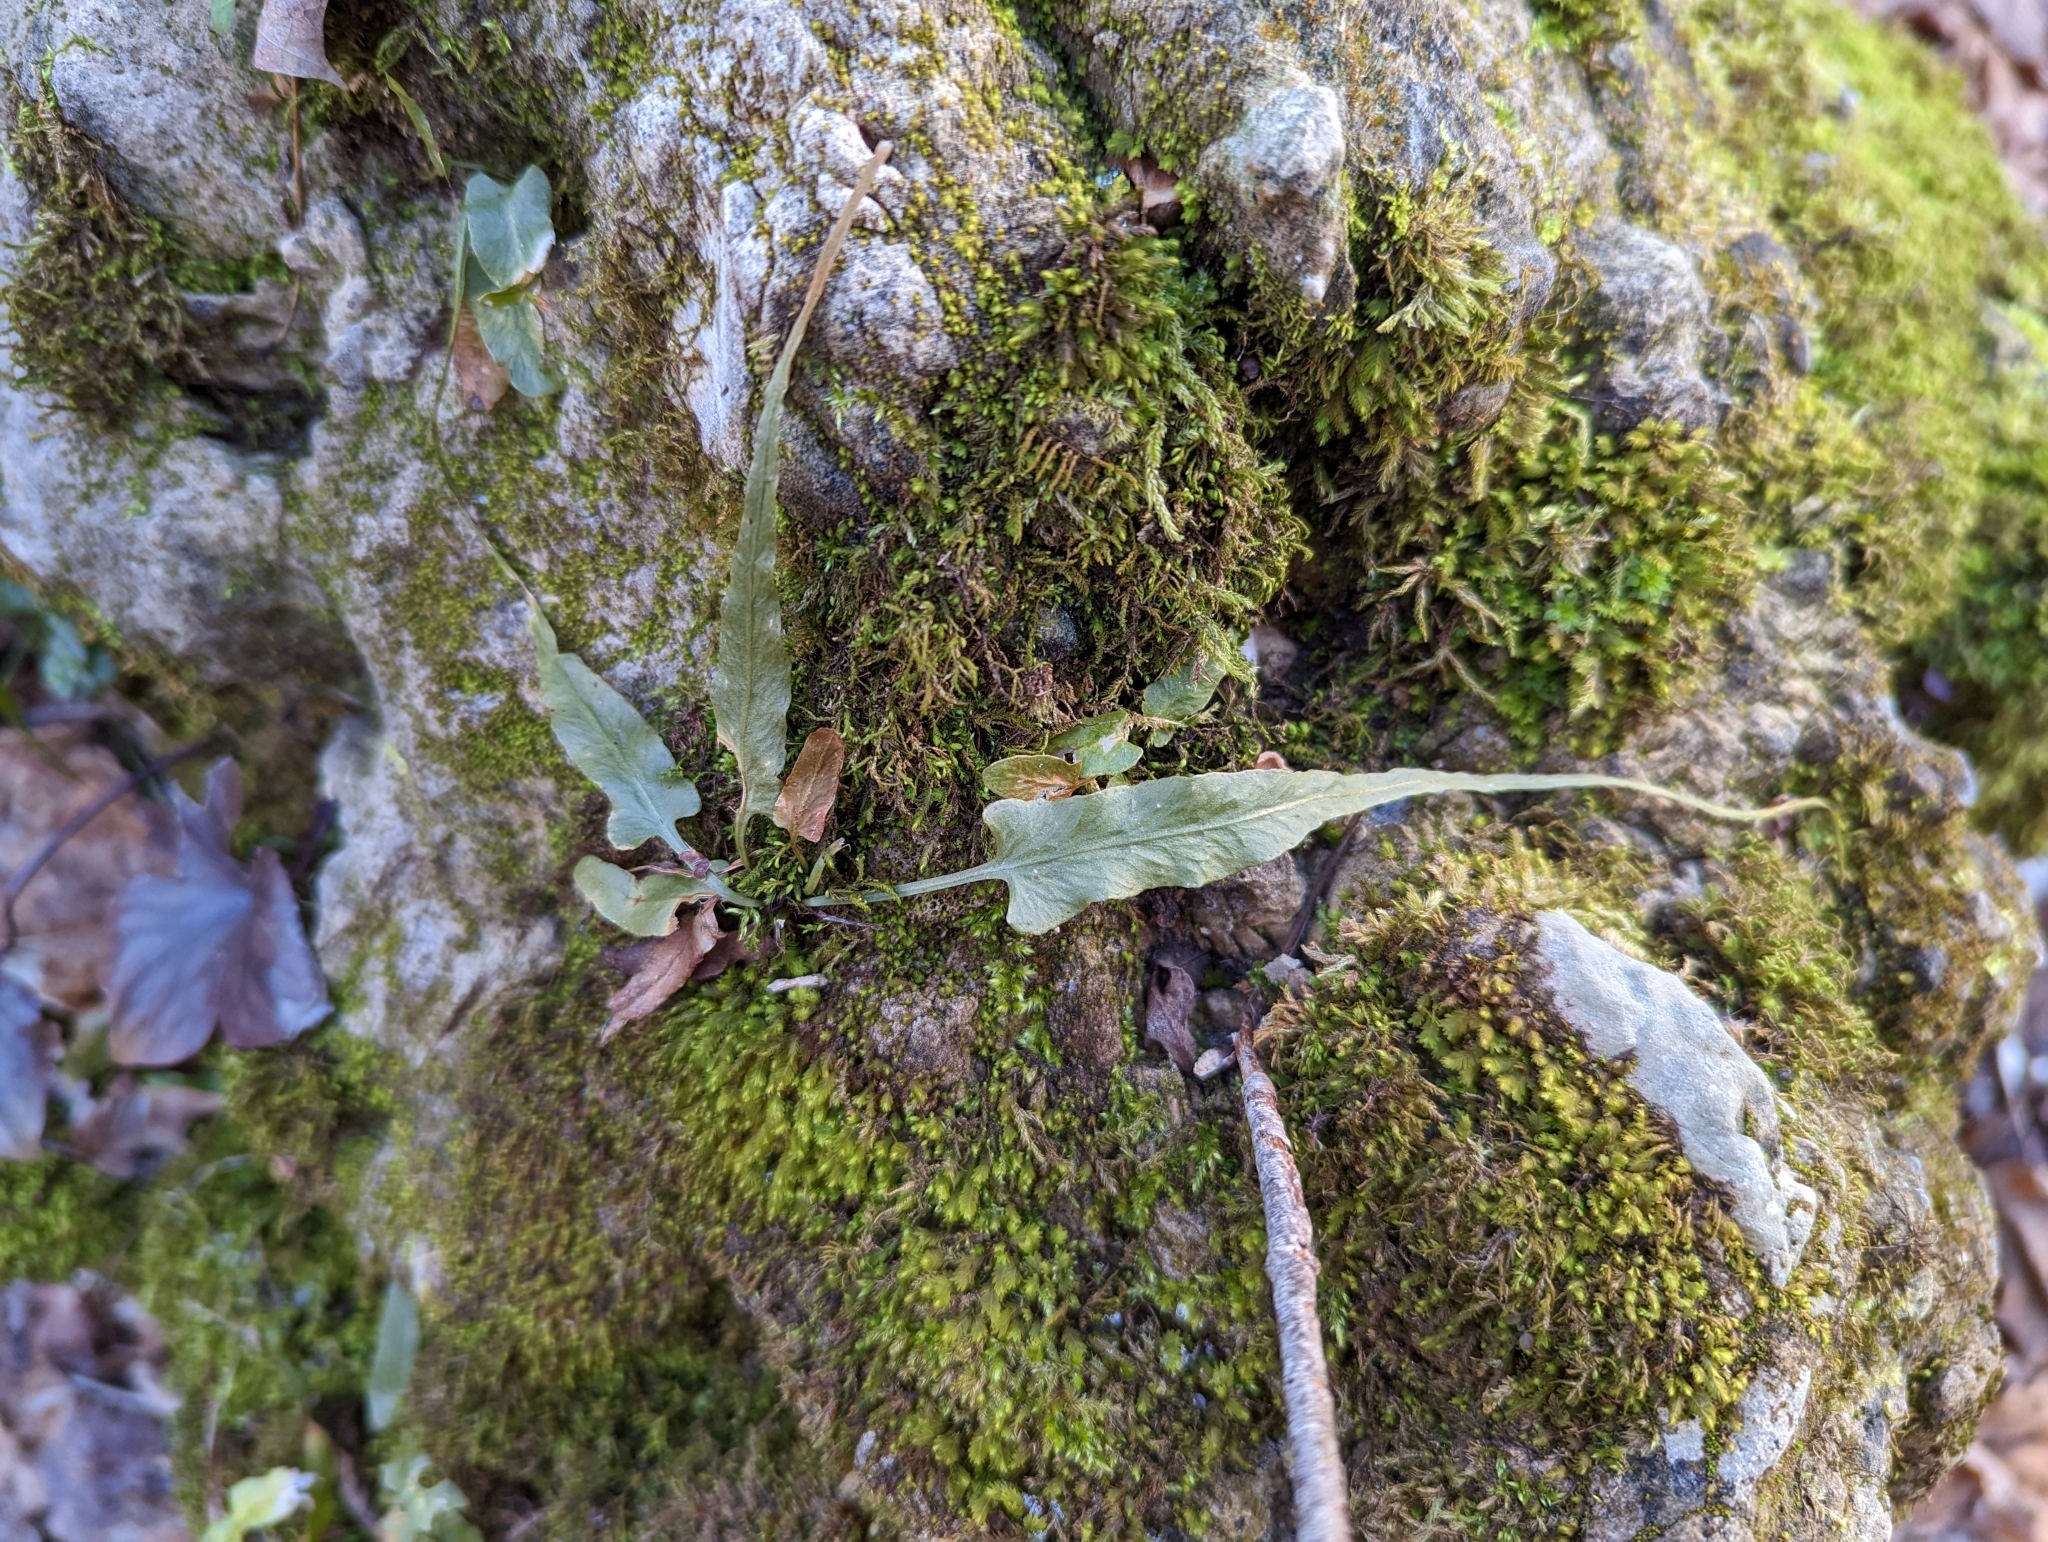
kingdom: Plantae
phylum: Tracheophyta
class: Polypodiopsida
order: Polypodiales
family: Aspleniaceae
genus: Asplenium
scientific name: Asplenium rhizophyllum
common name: Walking fern
